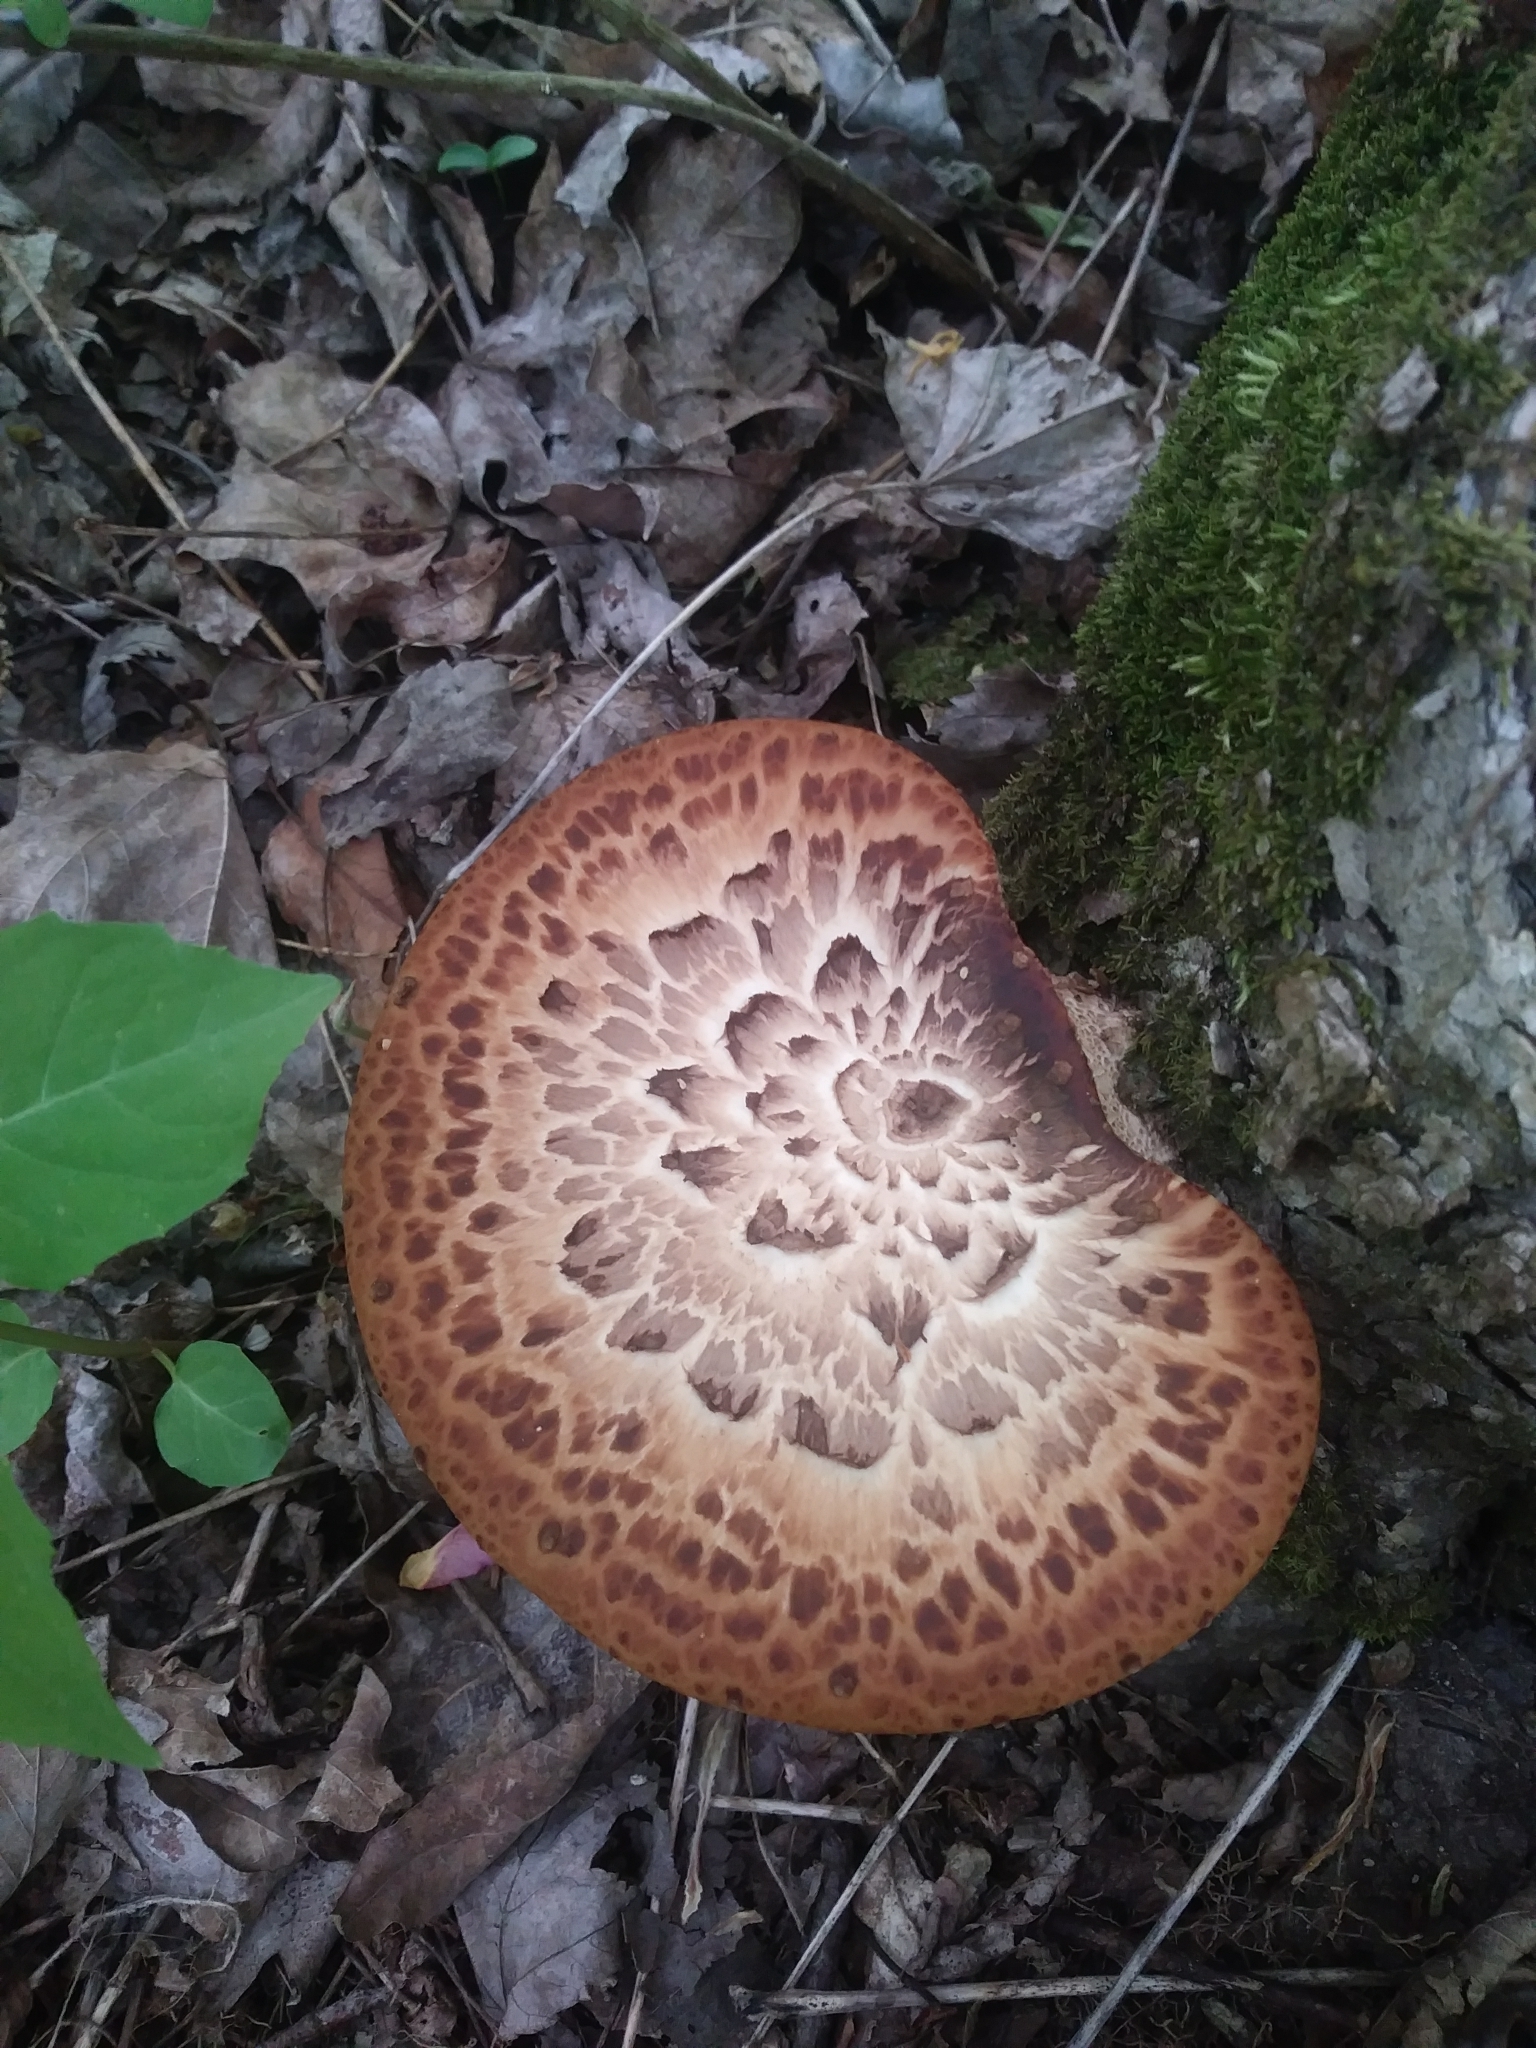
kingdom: Fungi
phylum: Basidiomycota
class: Agaricomycetes
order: Polyporales
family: Polyporaceae
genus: Cerioporus
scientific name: Cerioporus squamosus
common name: Dryad's saddle
